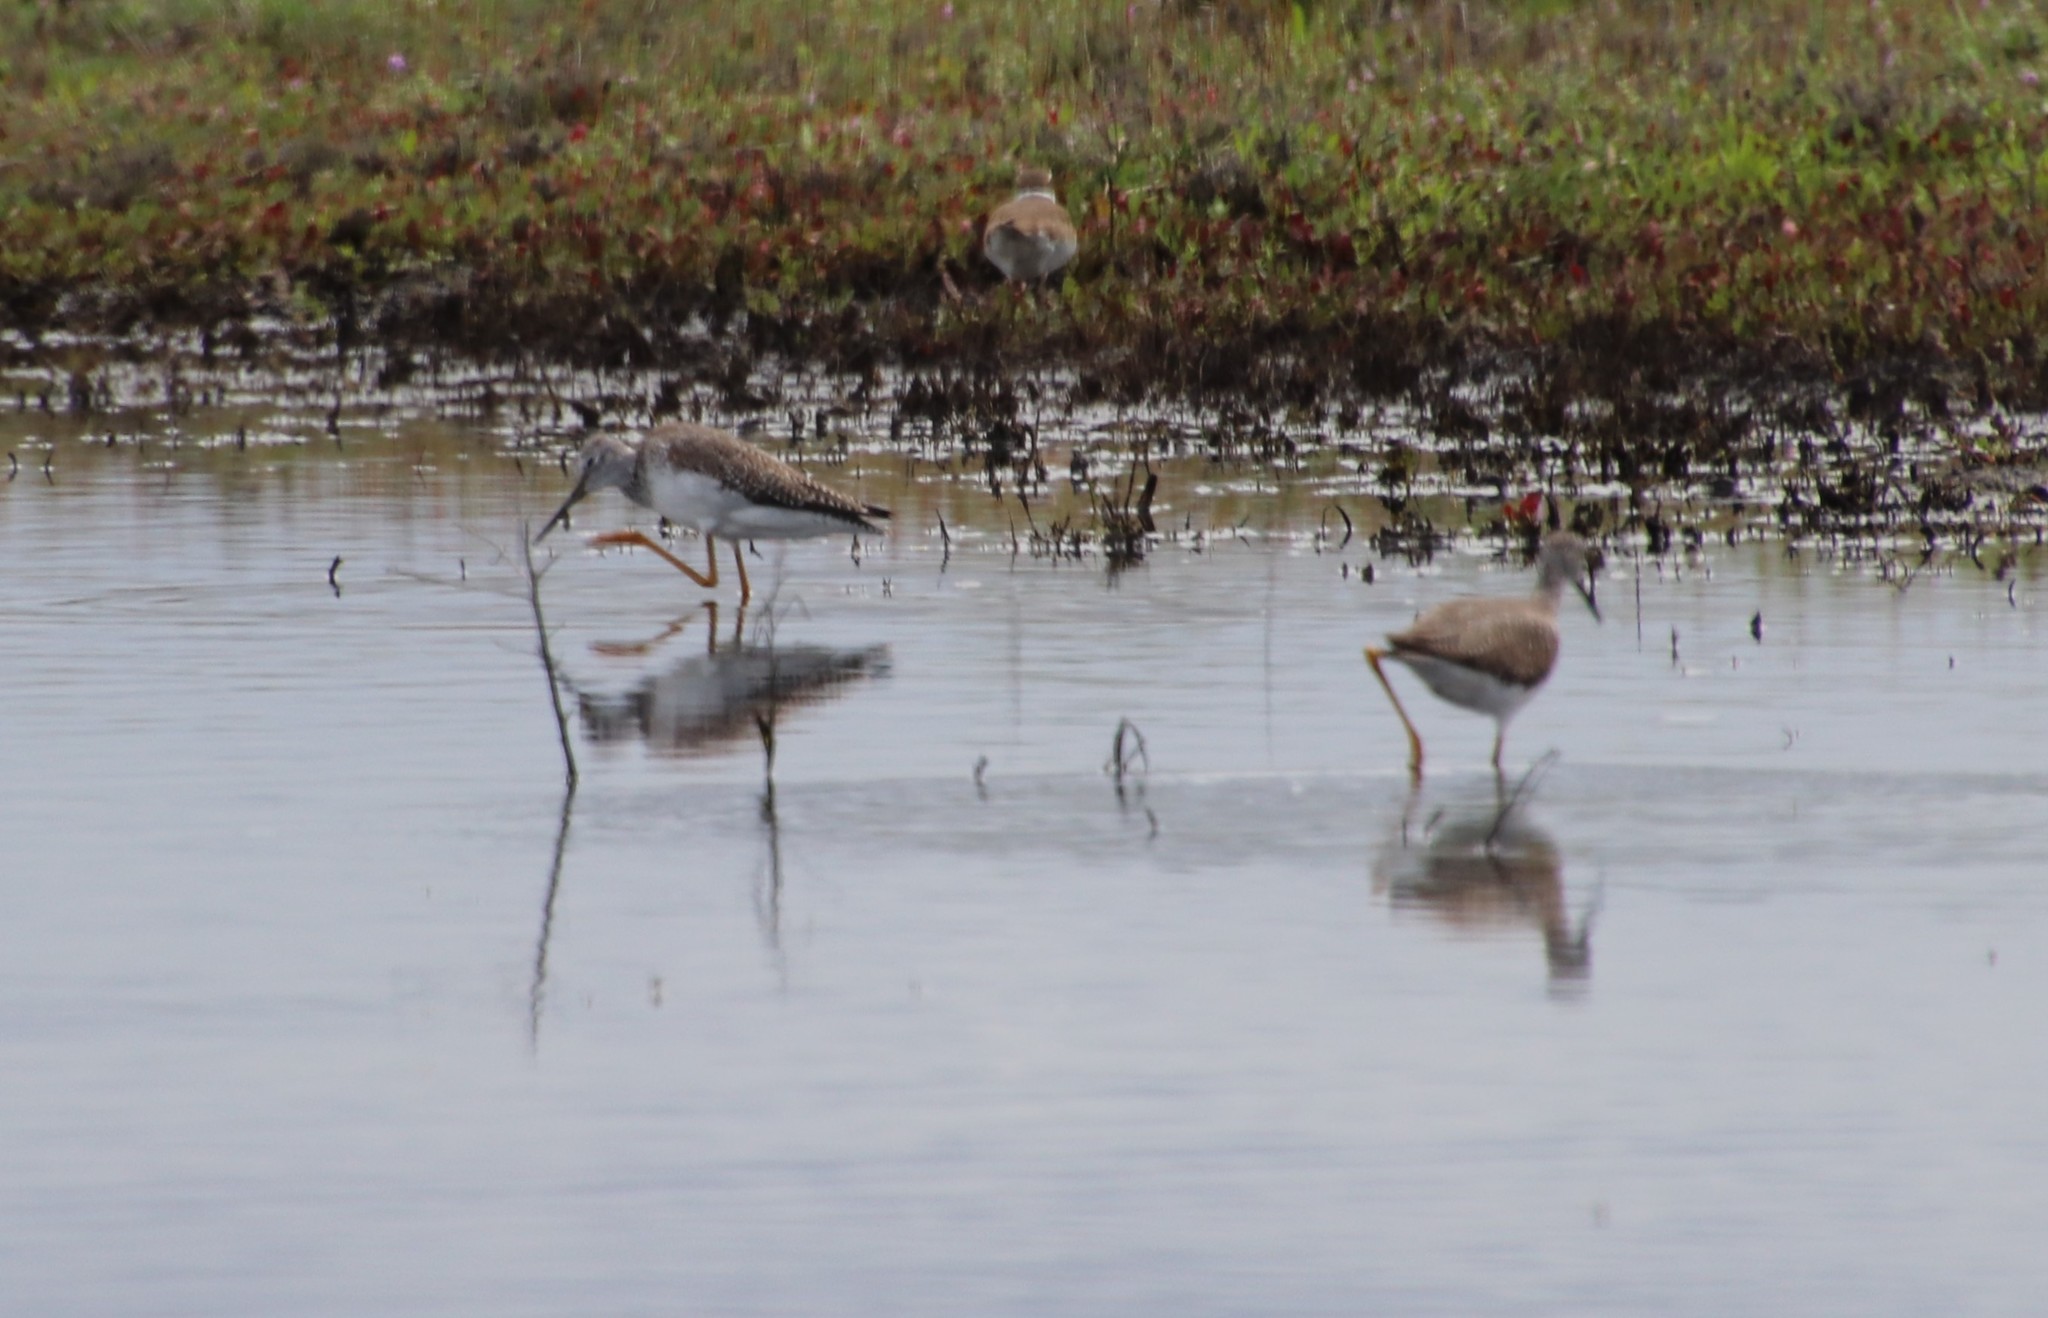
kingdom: Animalia
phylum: Chordata
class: Aves
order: Charadriiformes
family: Scolopacidae
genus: Tringa
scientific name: Tringa melanoleuca
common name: Greater yellowlegs
